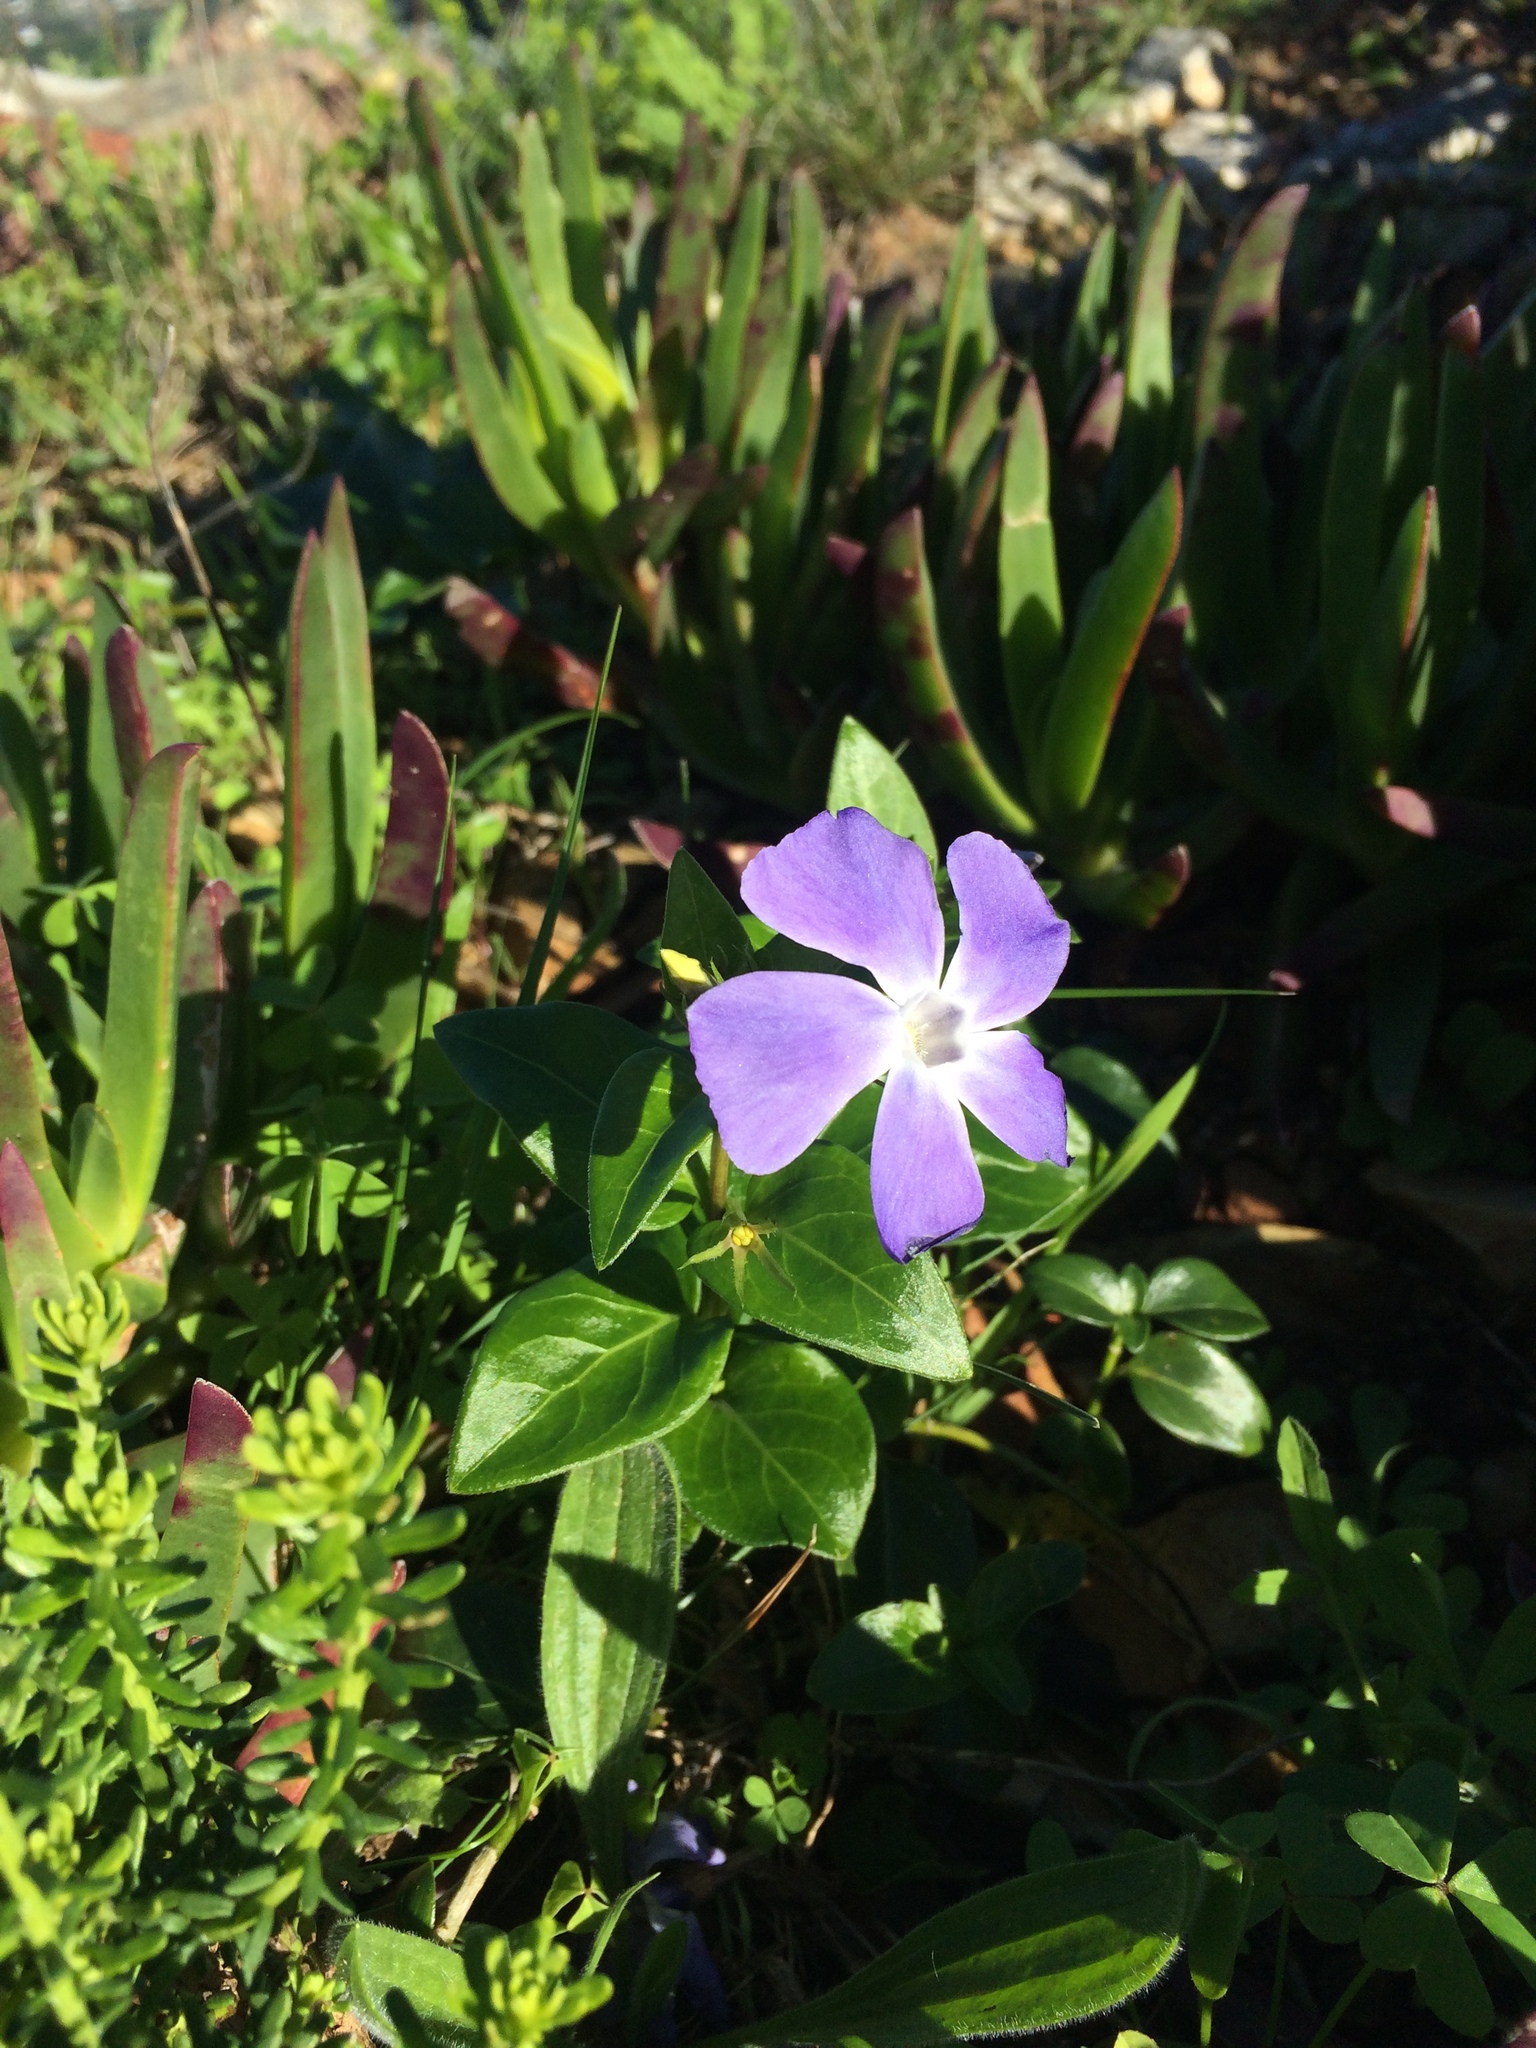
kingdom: Plantae
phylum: Tracheophyta
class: Magnoliopsida
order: Gentianales
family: Apocynaceae
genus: Vinca
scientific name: Vinca major
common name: Greater periwinkle
